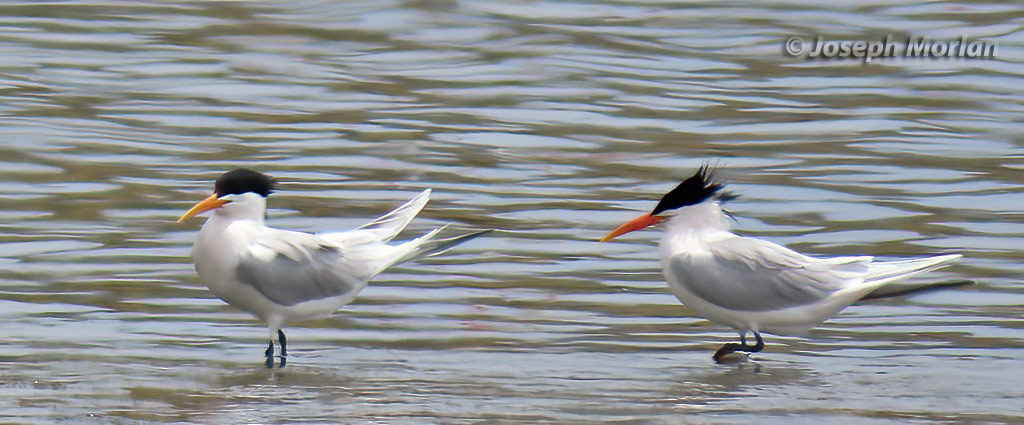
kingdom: Animalia
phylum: Chordata
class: Aves
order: Charadriiformes
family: Laridae
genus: Thalasseus
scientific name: Thalasseus elegans
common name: Elegant tern
